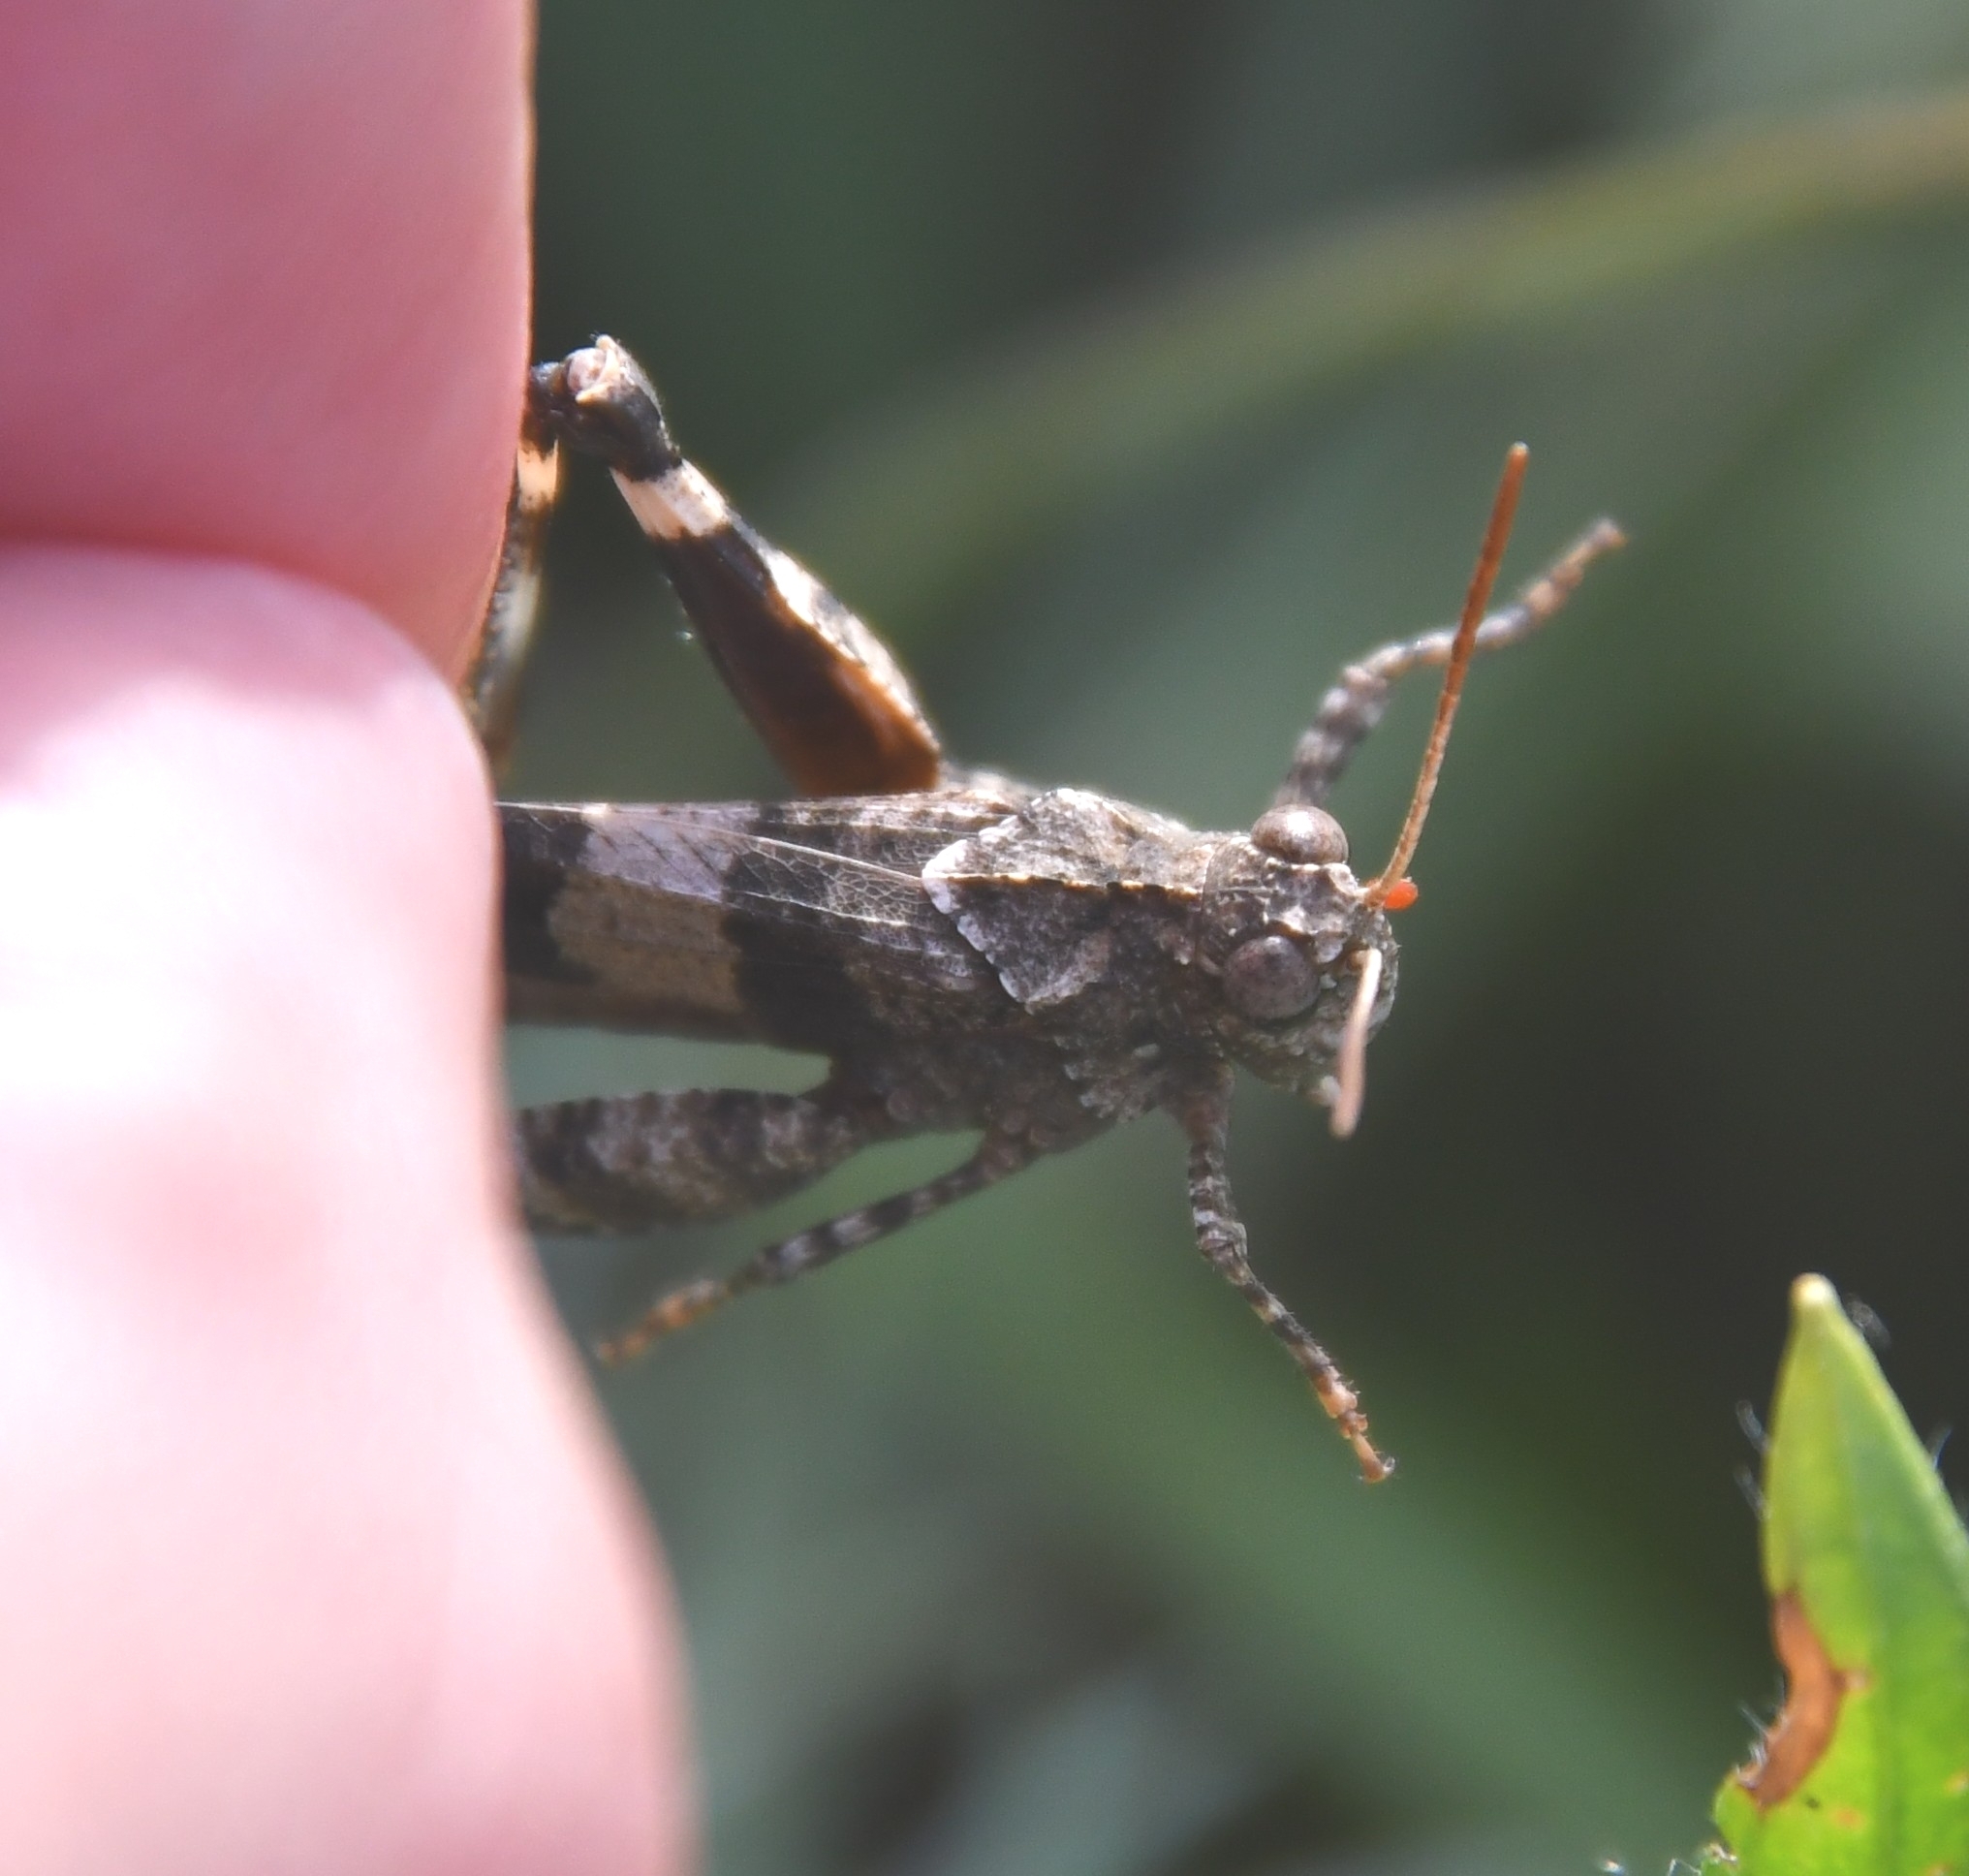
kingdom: Animalia
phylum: Arthropoda
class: Insecta
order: Orthoptera
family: Acrididae
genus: Oedipoda
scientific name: Oedipoda caerulescens
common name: Blue-winged grasshopper
